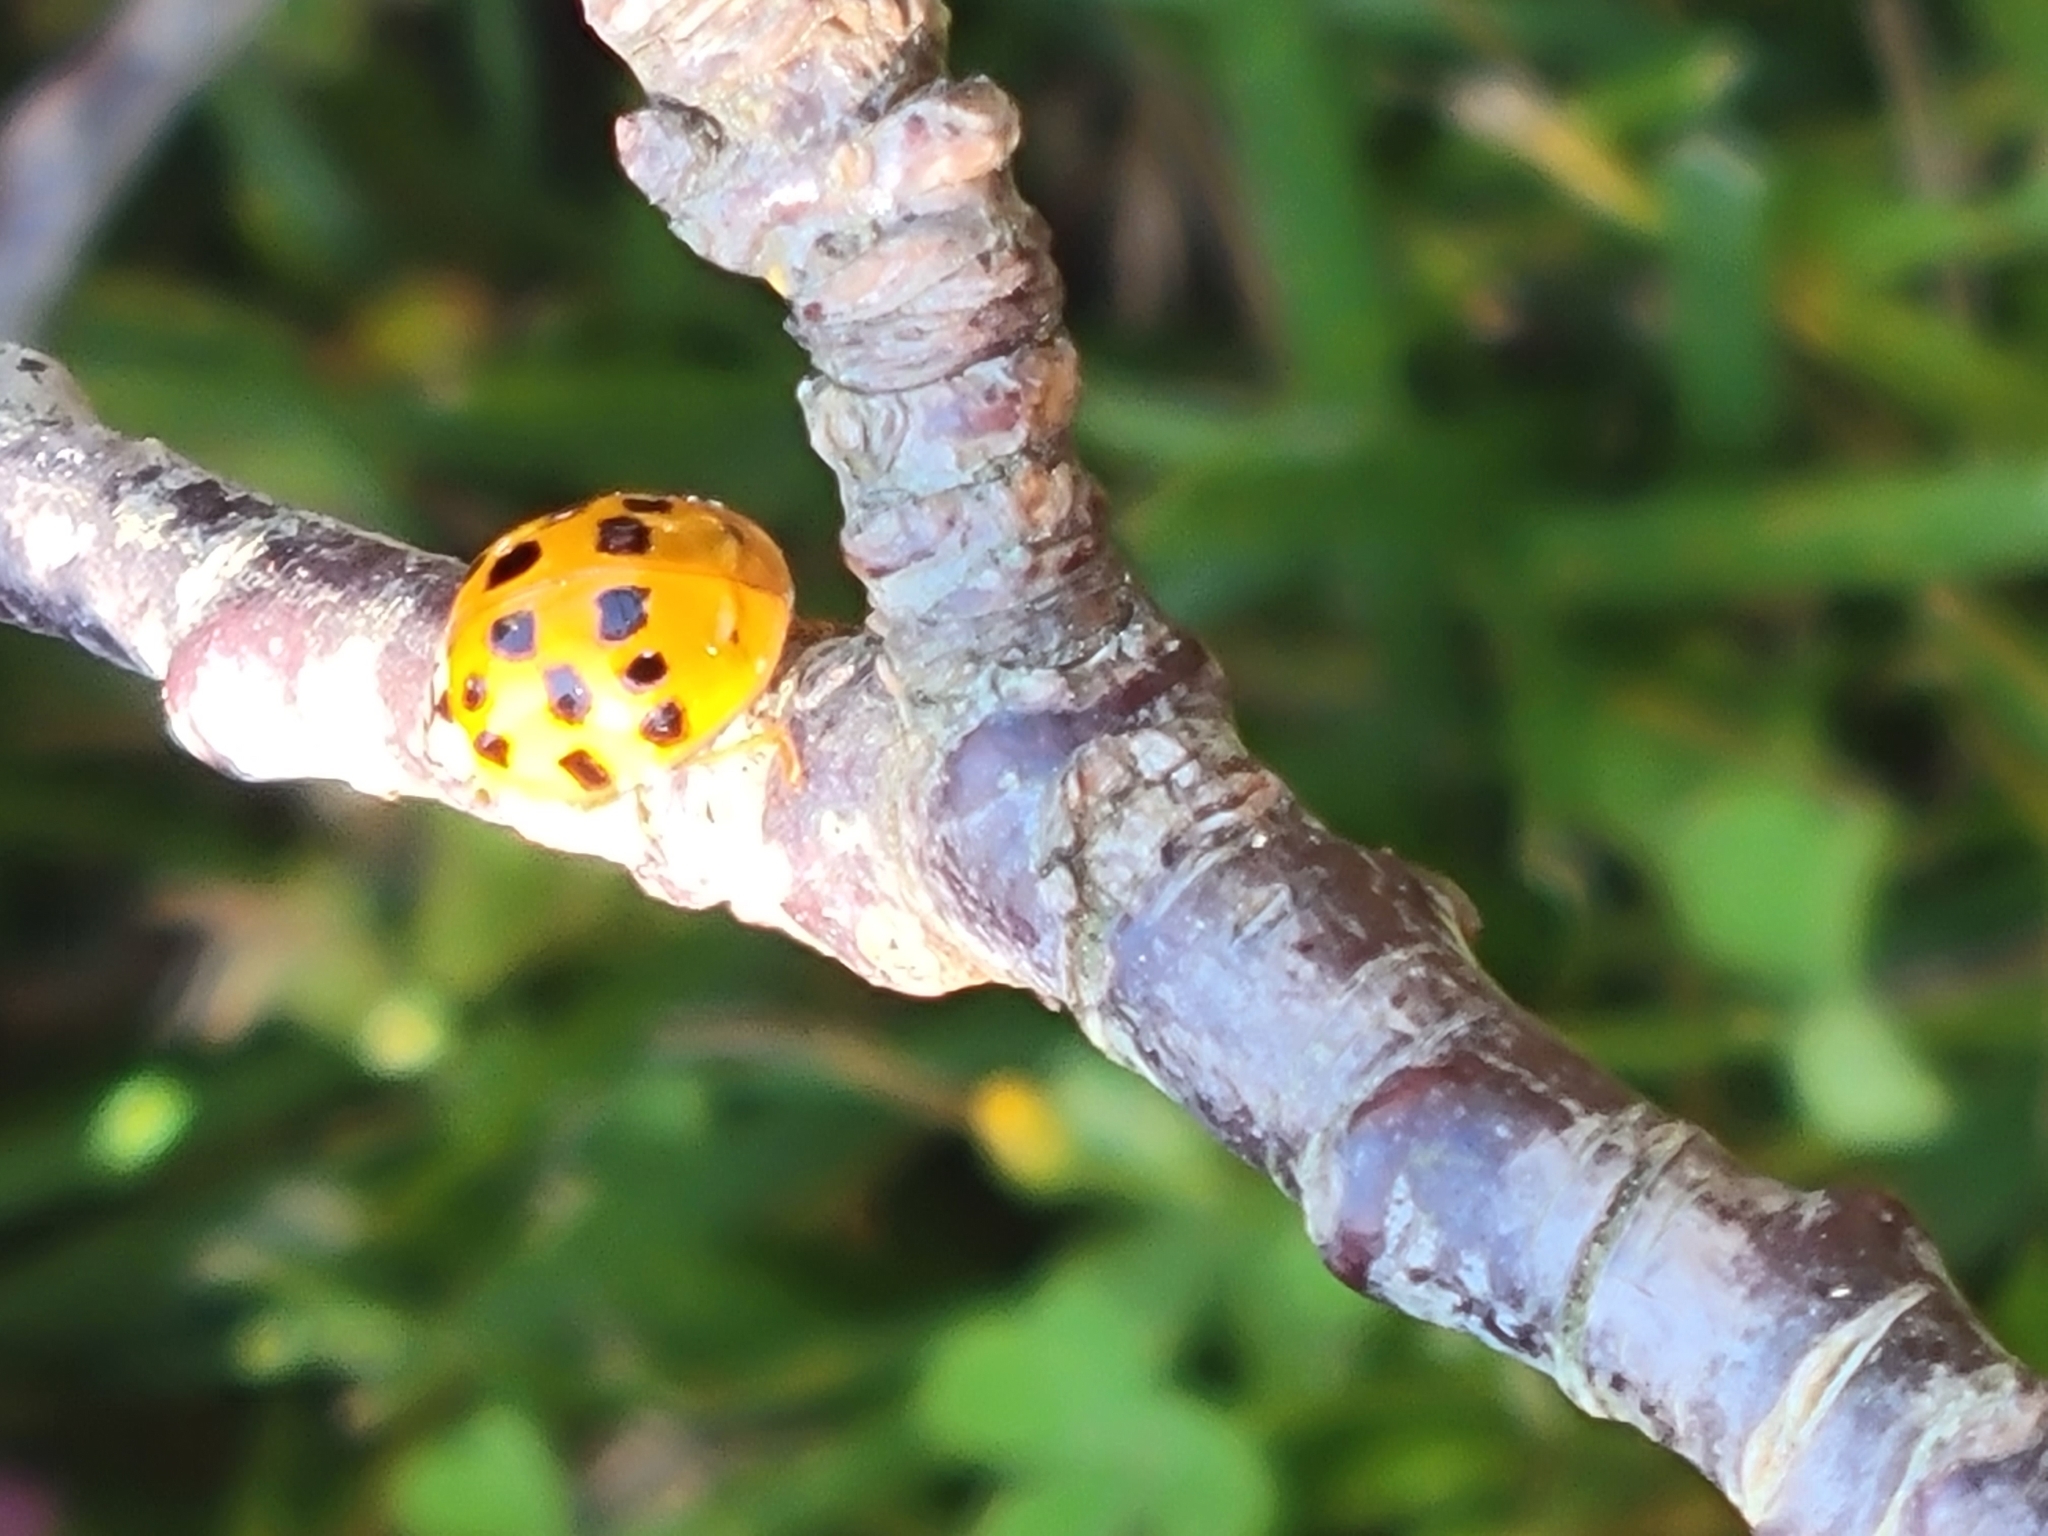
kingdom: Animalia
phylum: Arthropoda
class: Insecta
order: Coleoptera
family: Coccinellidae
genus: Harmonia
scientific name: Harmonia axyridis
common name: Harlequin ladybird
